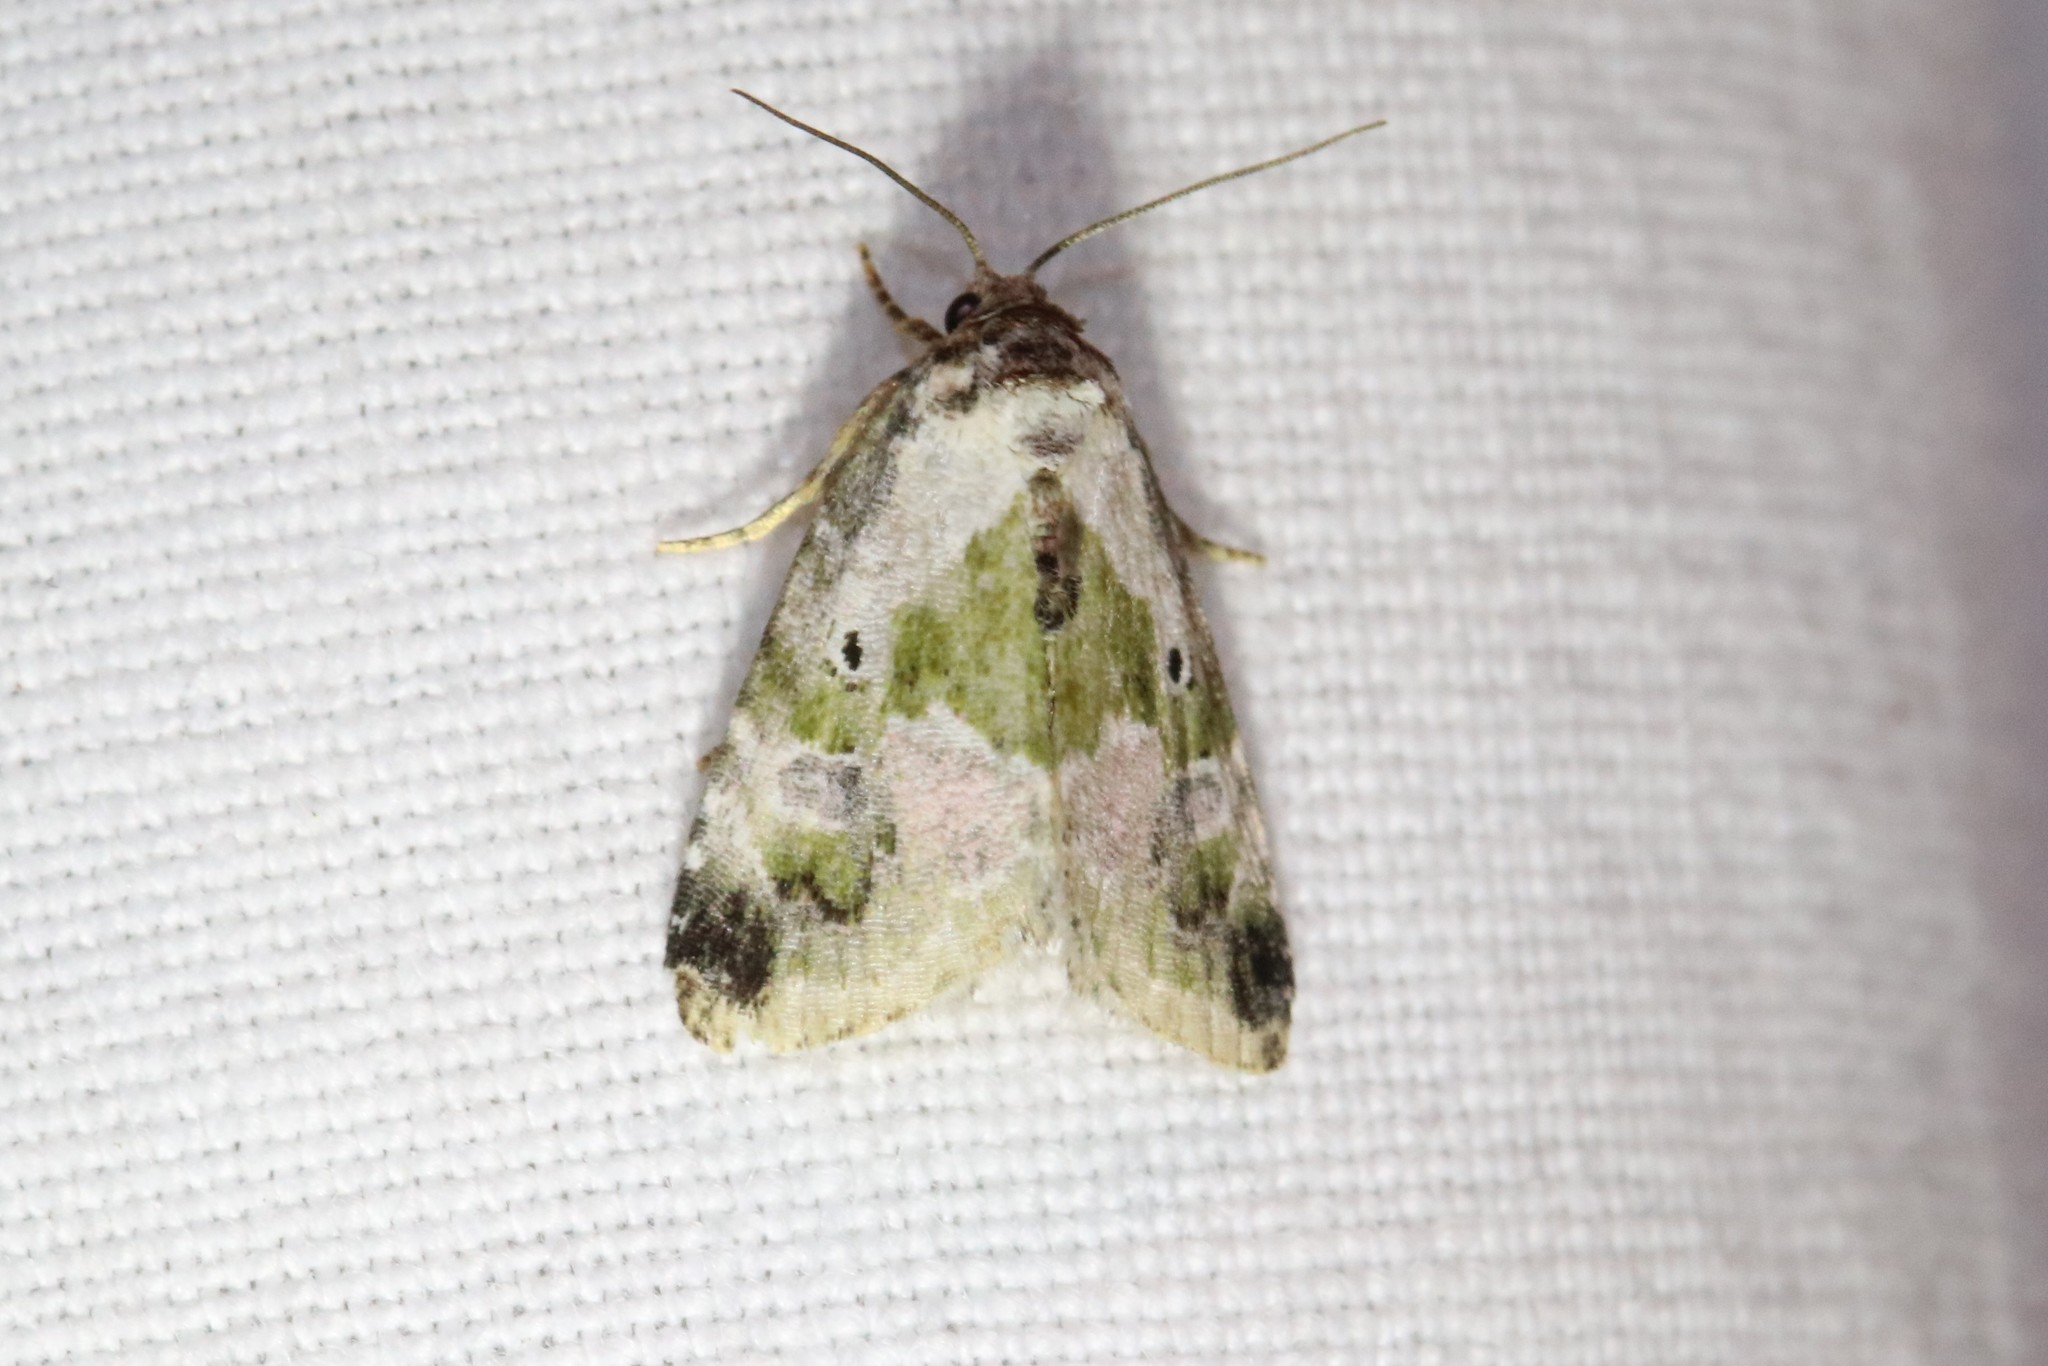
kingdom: Animalia
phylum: Arthropoda
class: Insecta
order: Lepidoptera
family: Noctuidae
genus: Maliattha
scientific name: Maliattha synochitis
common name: Black-dotted glyph
